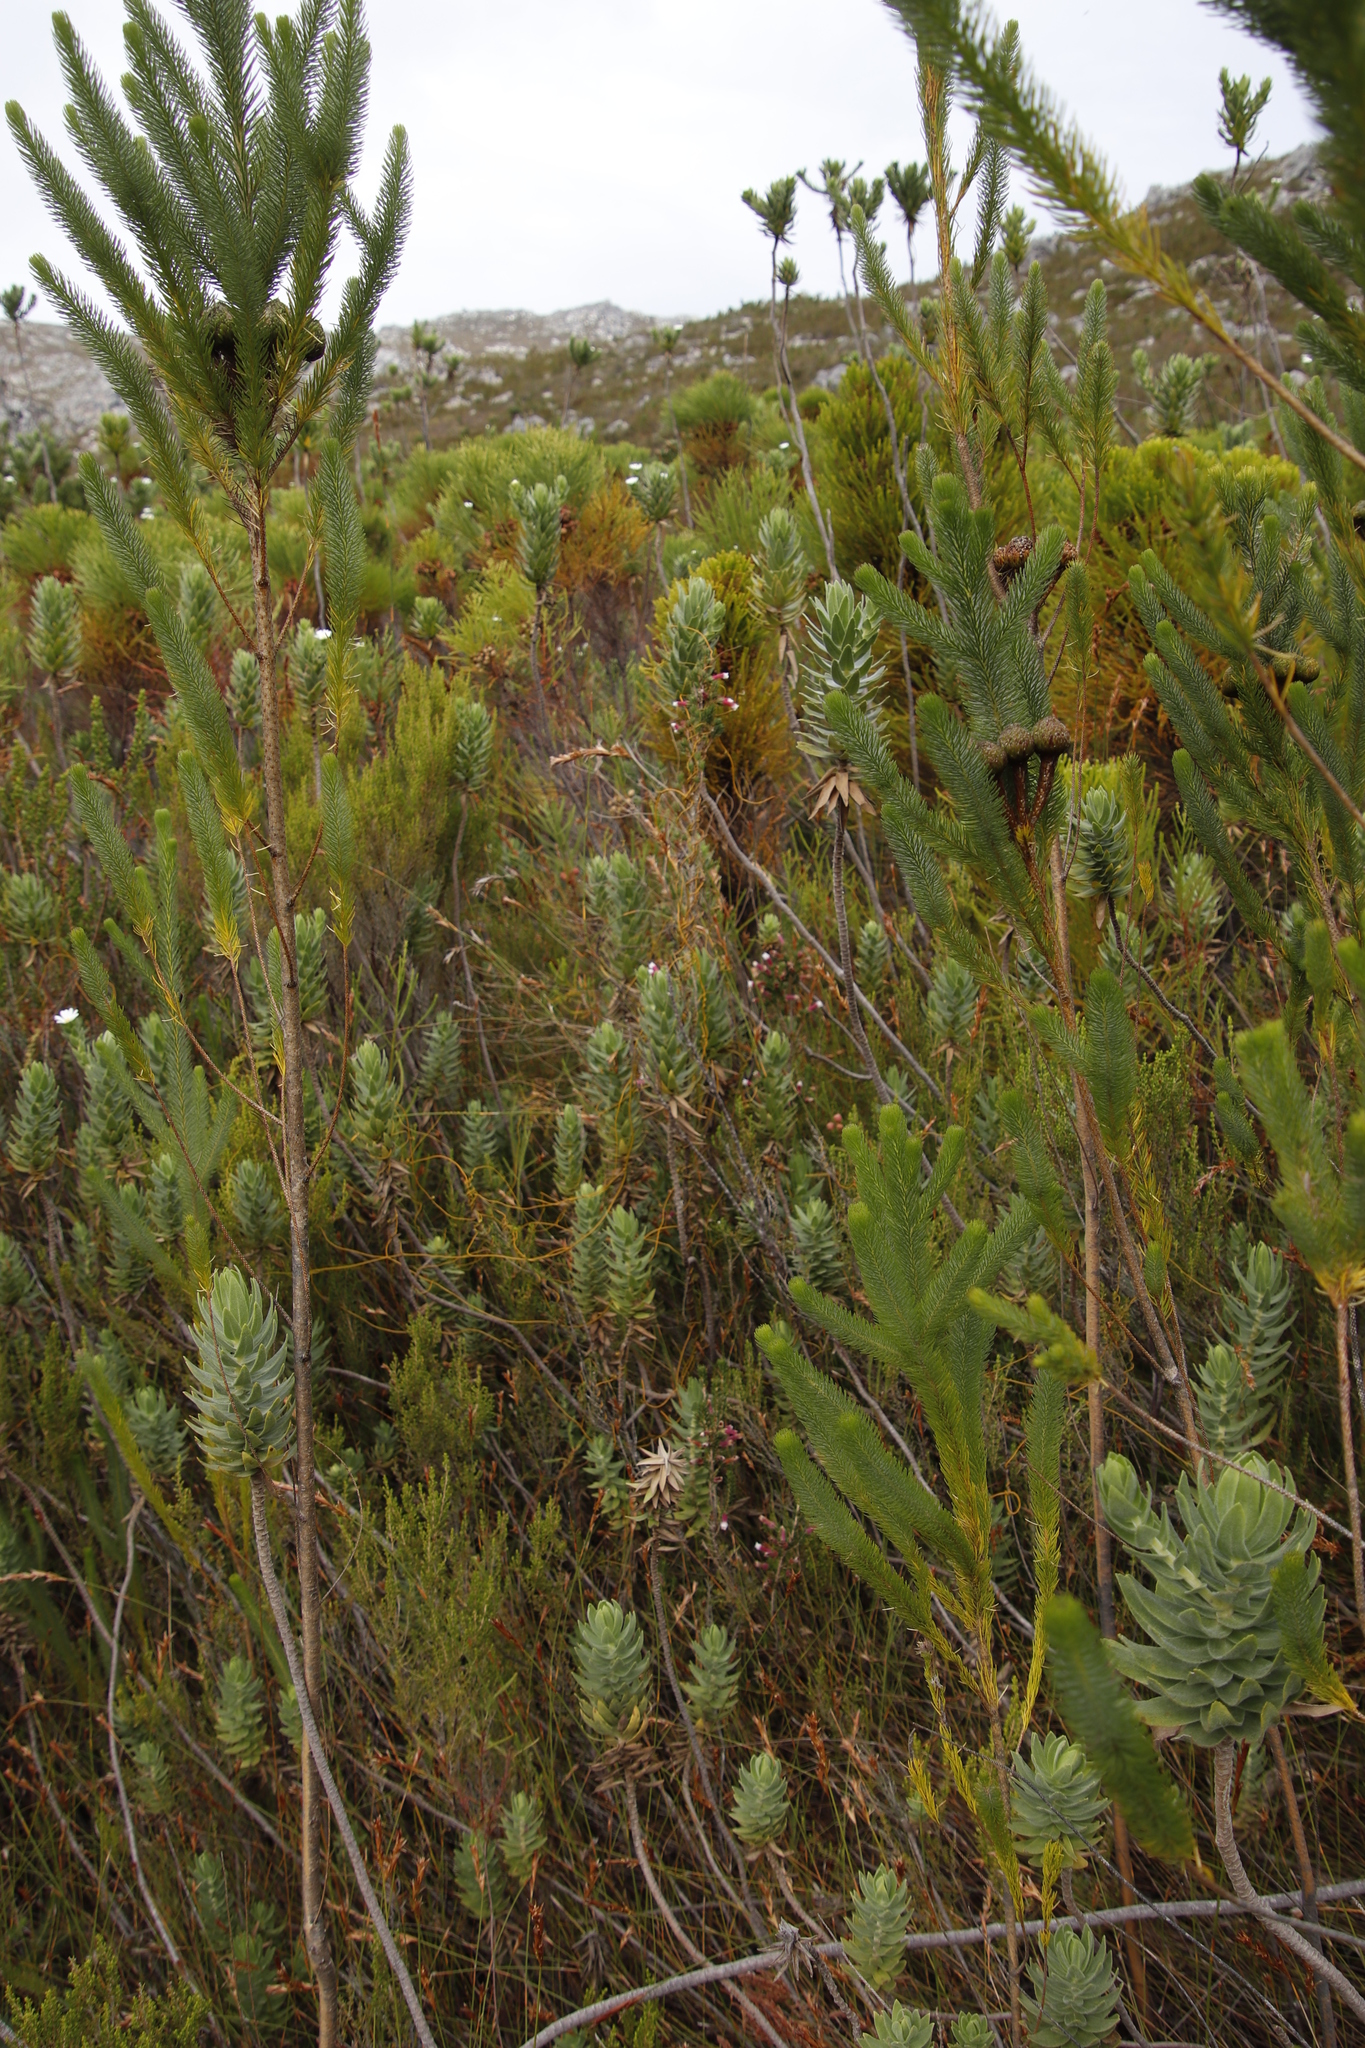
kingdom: Plantae
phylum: Tracheophyta
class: Magnoliopsida
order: Asterales
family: Asteraceae
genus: Osmitopsis
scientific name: Osmitopsis asteriscoides
